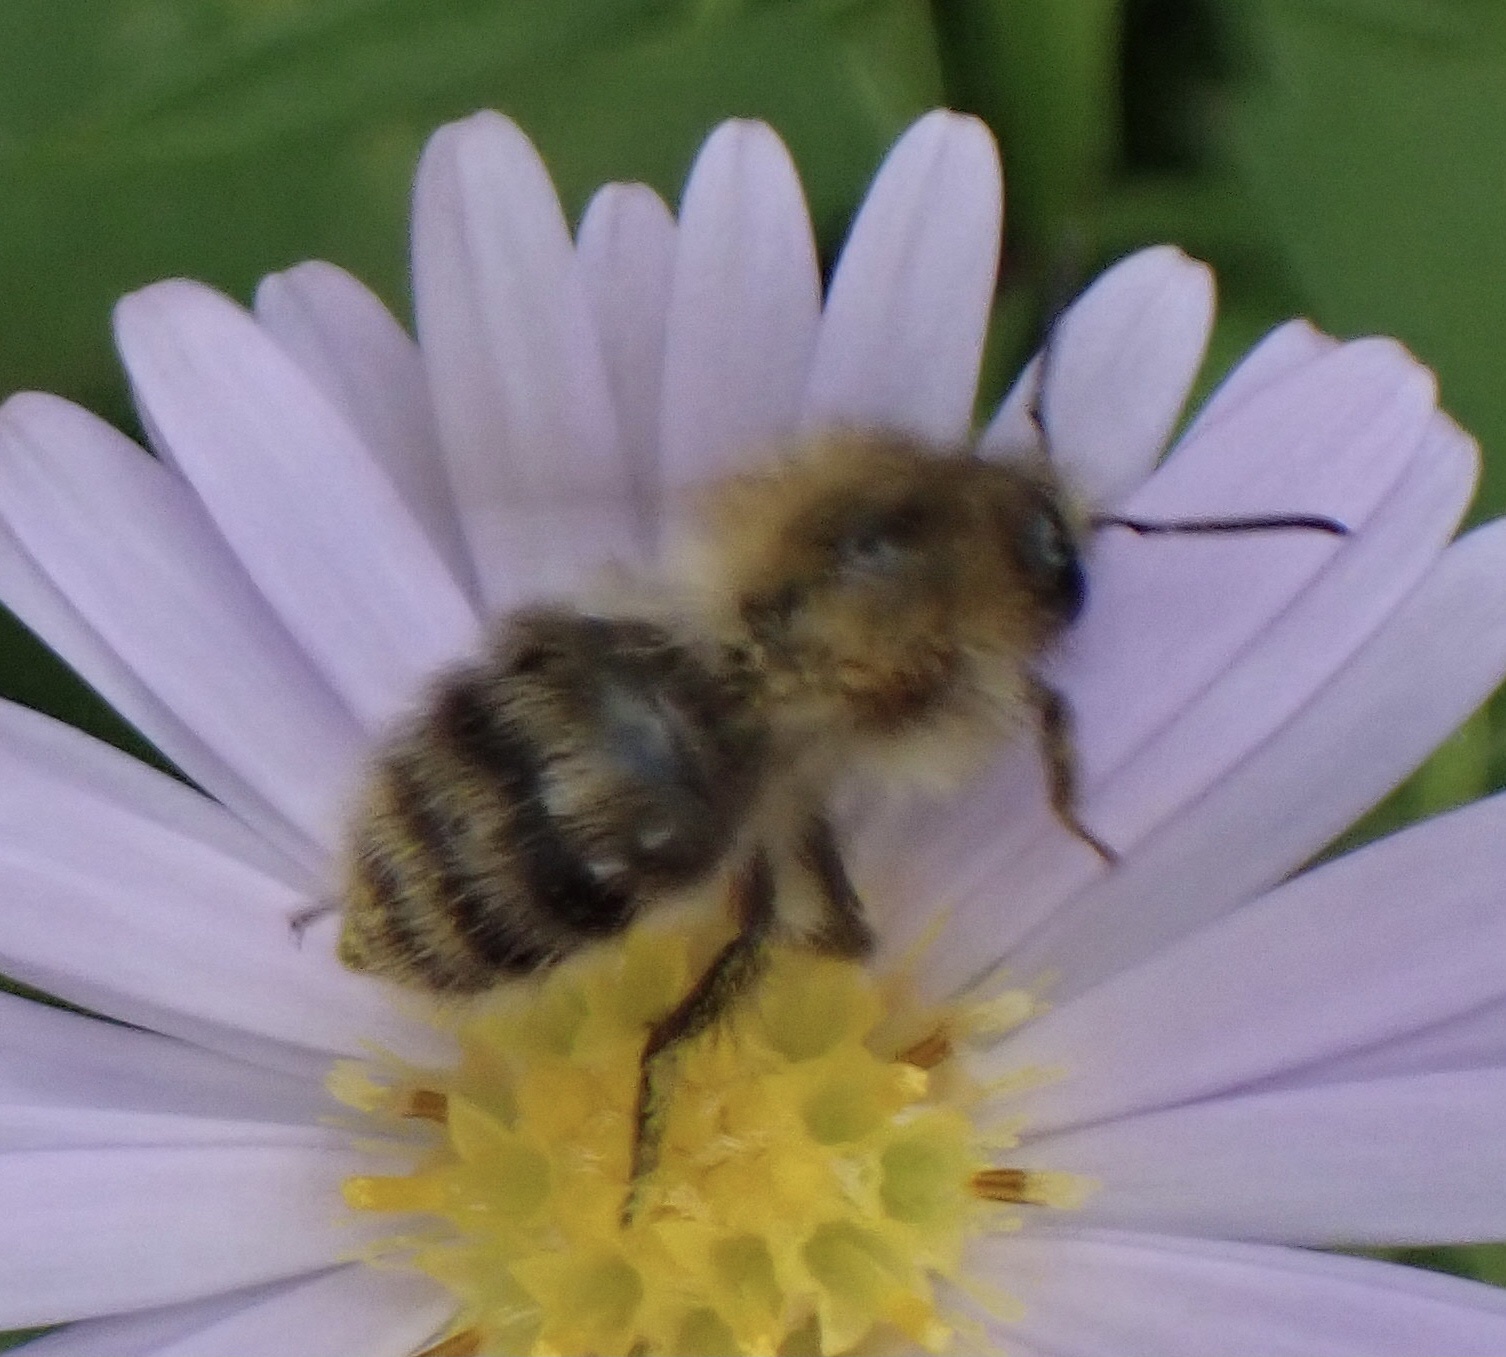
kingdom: Animalia
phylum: Arthropoda
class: Insecta
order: Hymenoptera
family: Apidae
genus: Bombus
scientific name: Bombus pascuorum
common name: Common carder bee
